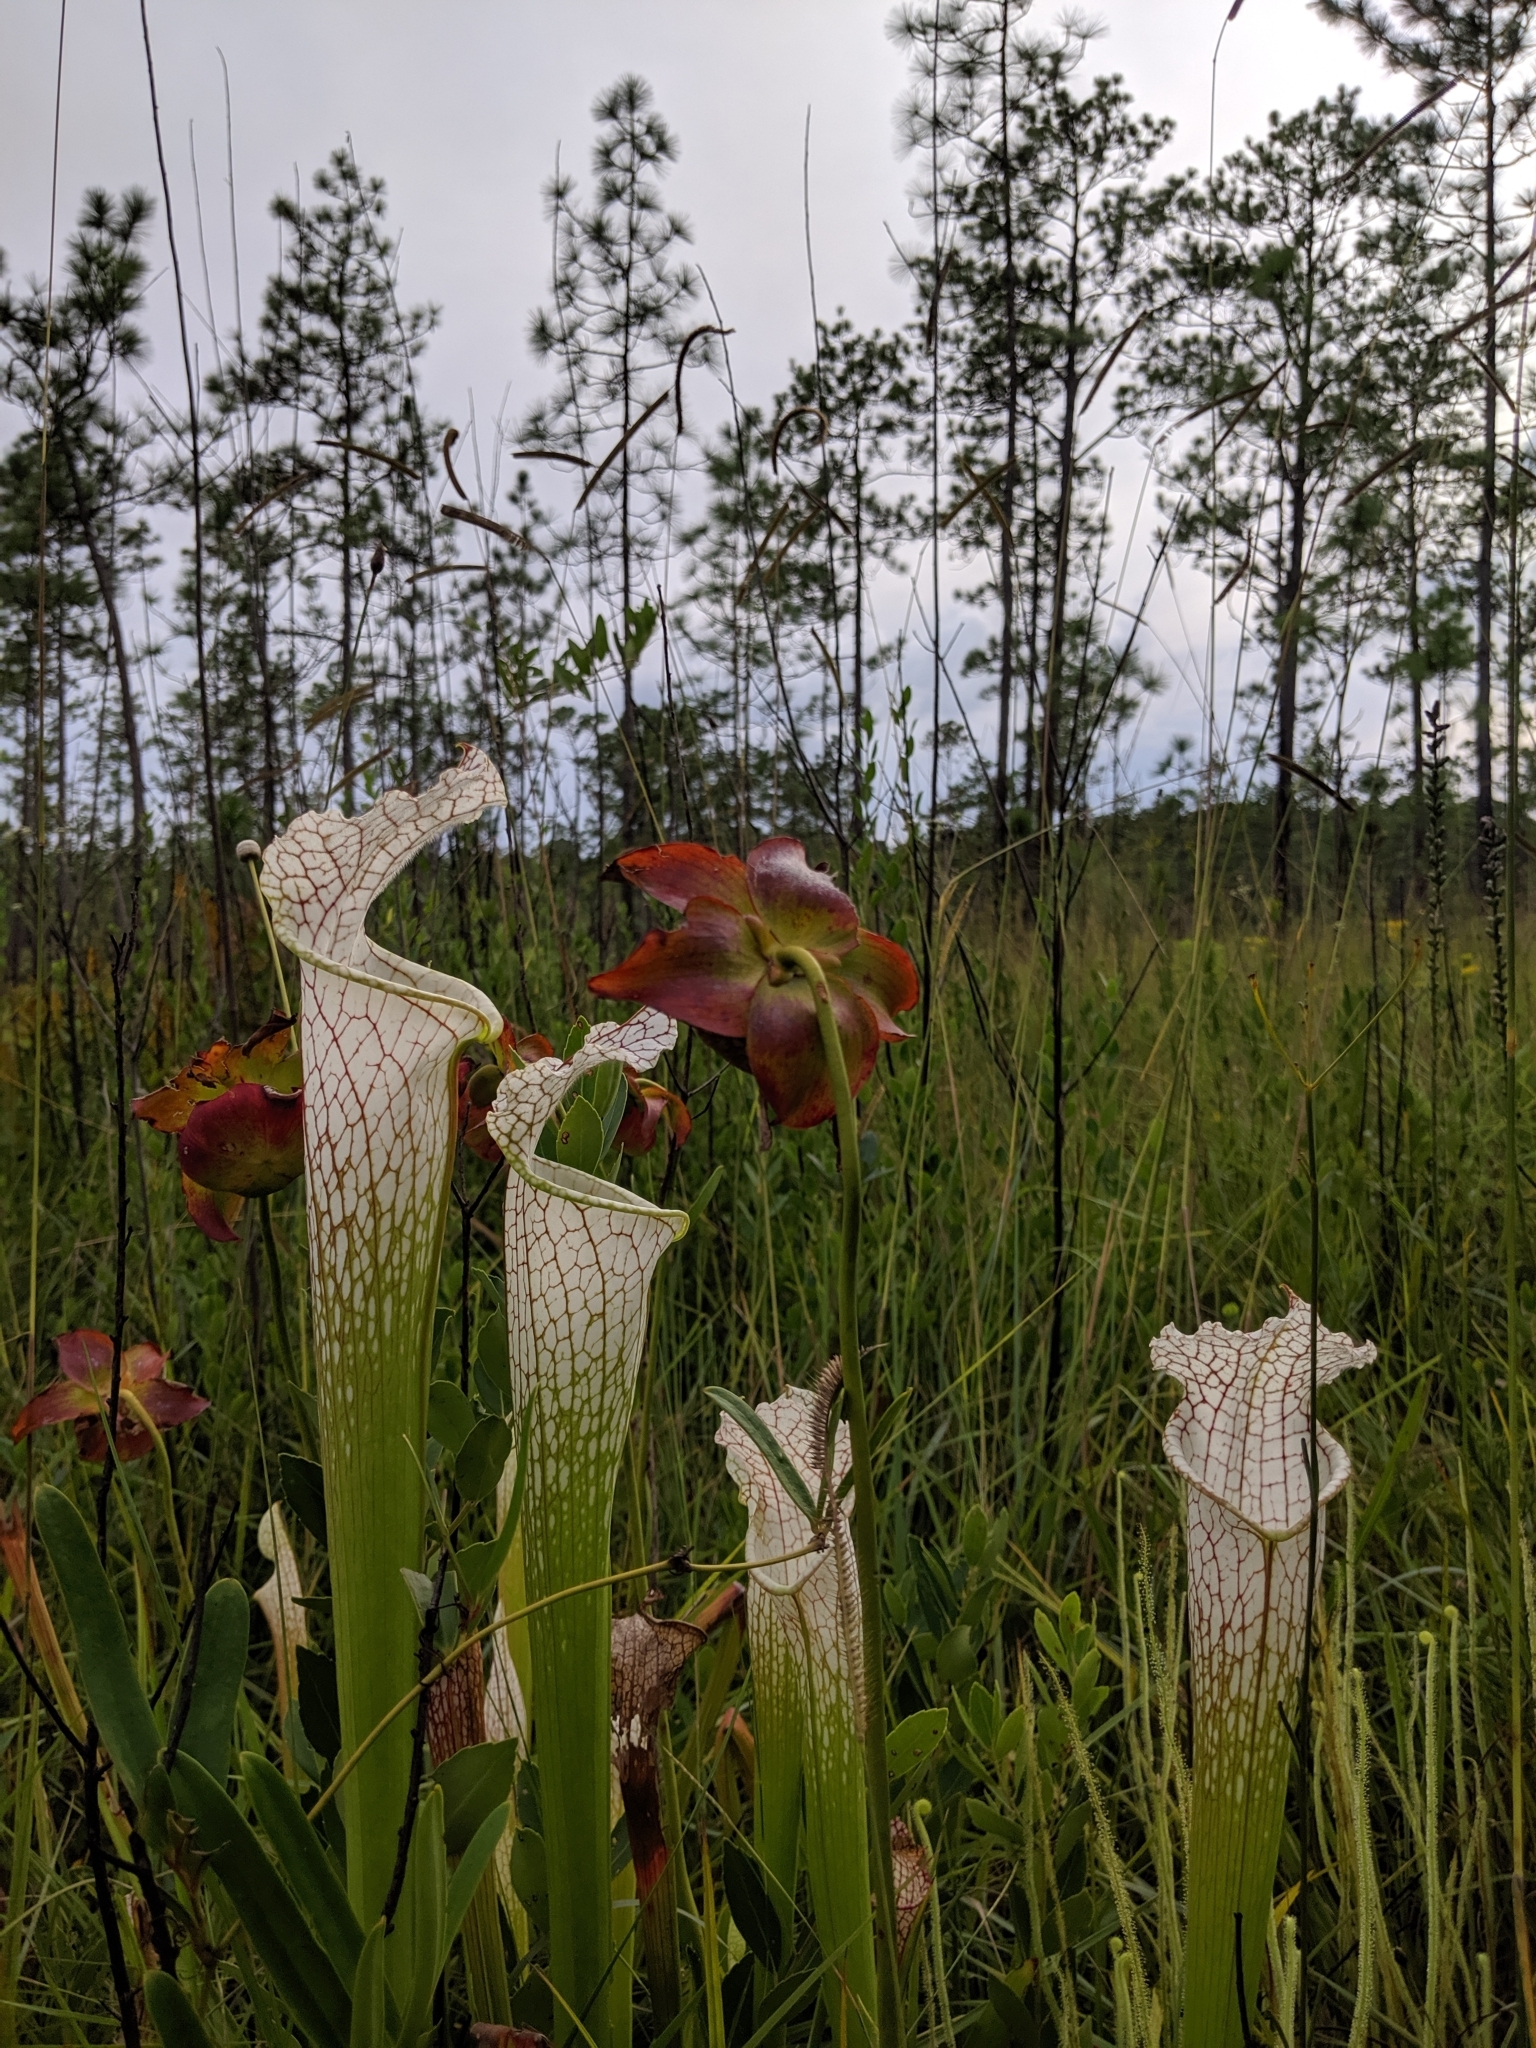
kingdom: Plantae
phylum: Tracheophyta
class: Magnoliopsida
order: Ericales
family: Sarraceniaceae
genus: Sarracenia
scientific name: Sarracenia leucophylla
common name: Purple trumpetleaf
